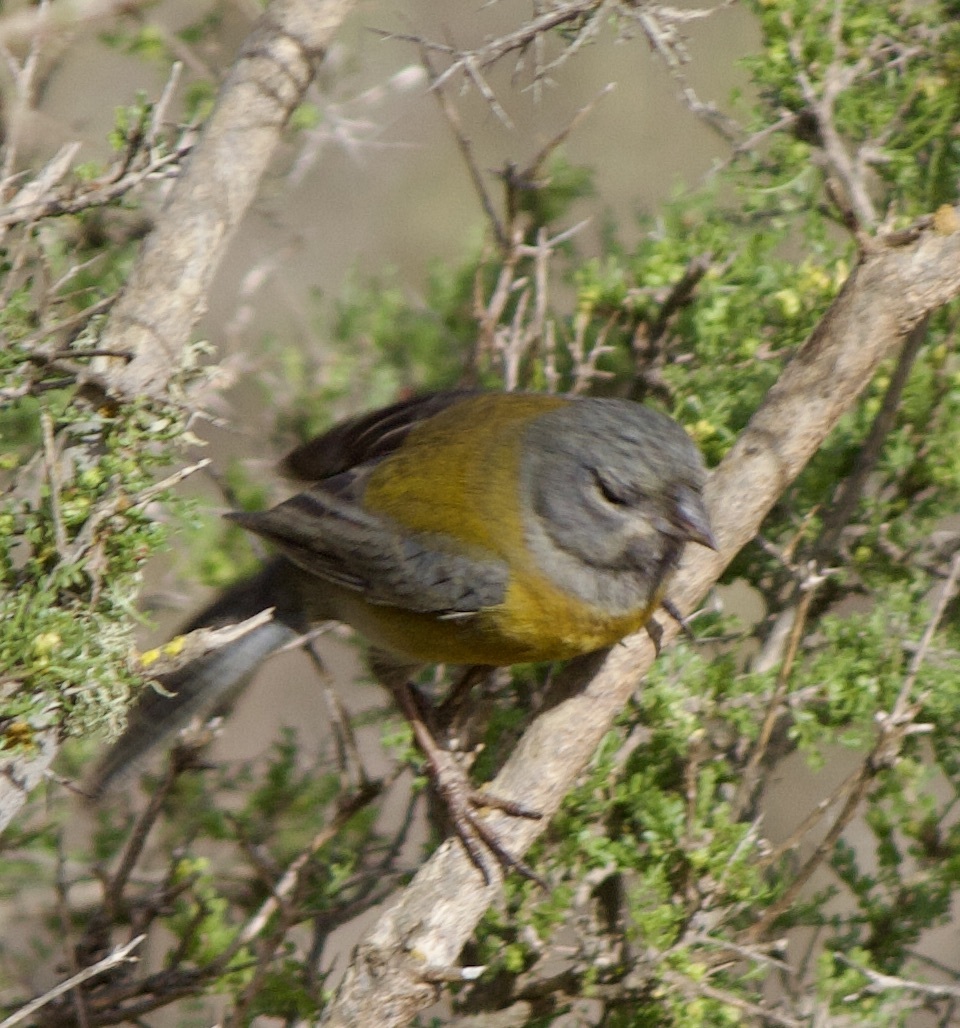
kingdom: Animalia
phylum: Chordata
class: Aves
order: Passeriformes
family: Thraupidae
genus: Phrygilus
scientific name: Phrygilus gayi
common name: Grey-hooded sierra finch
